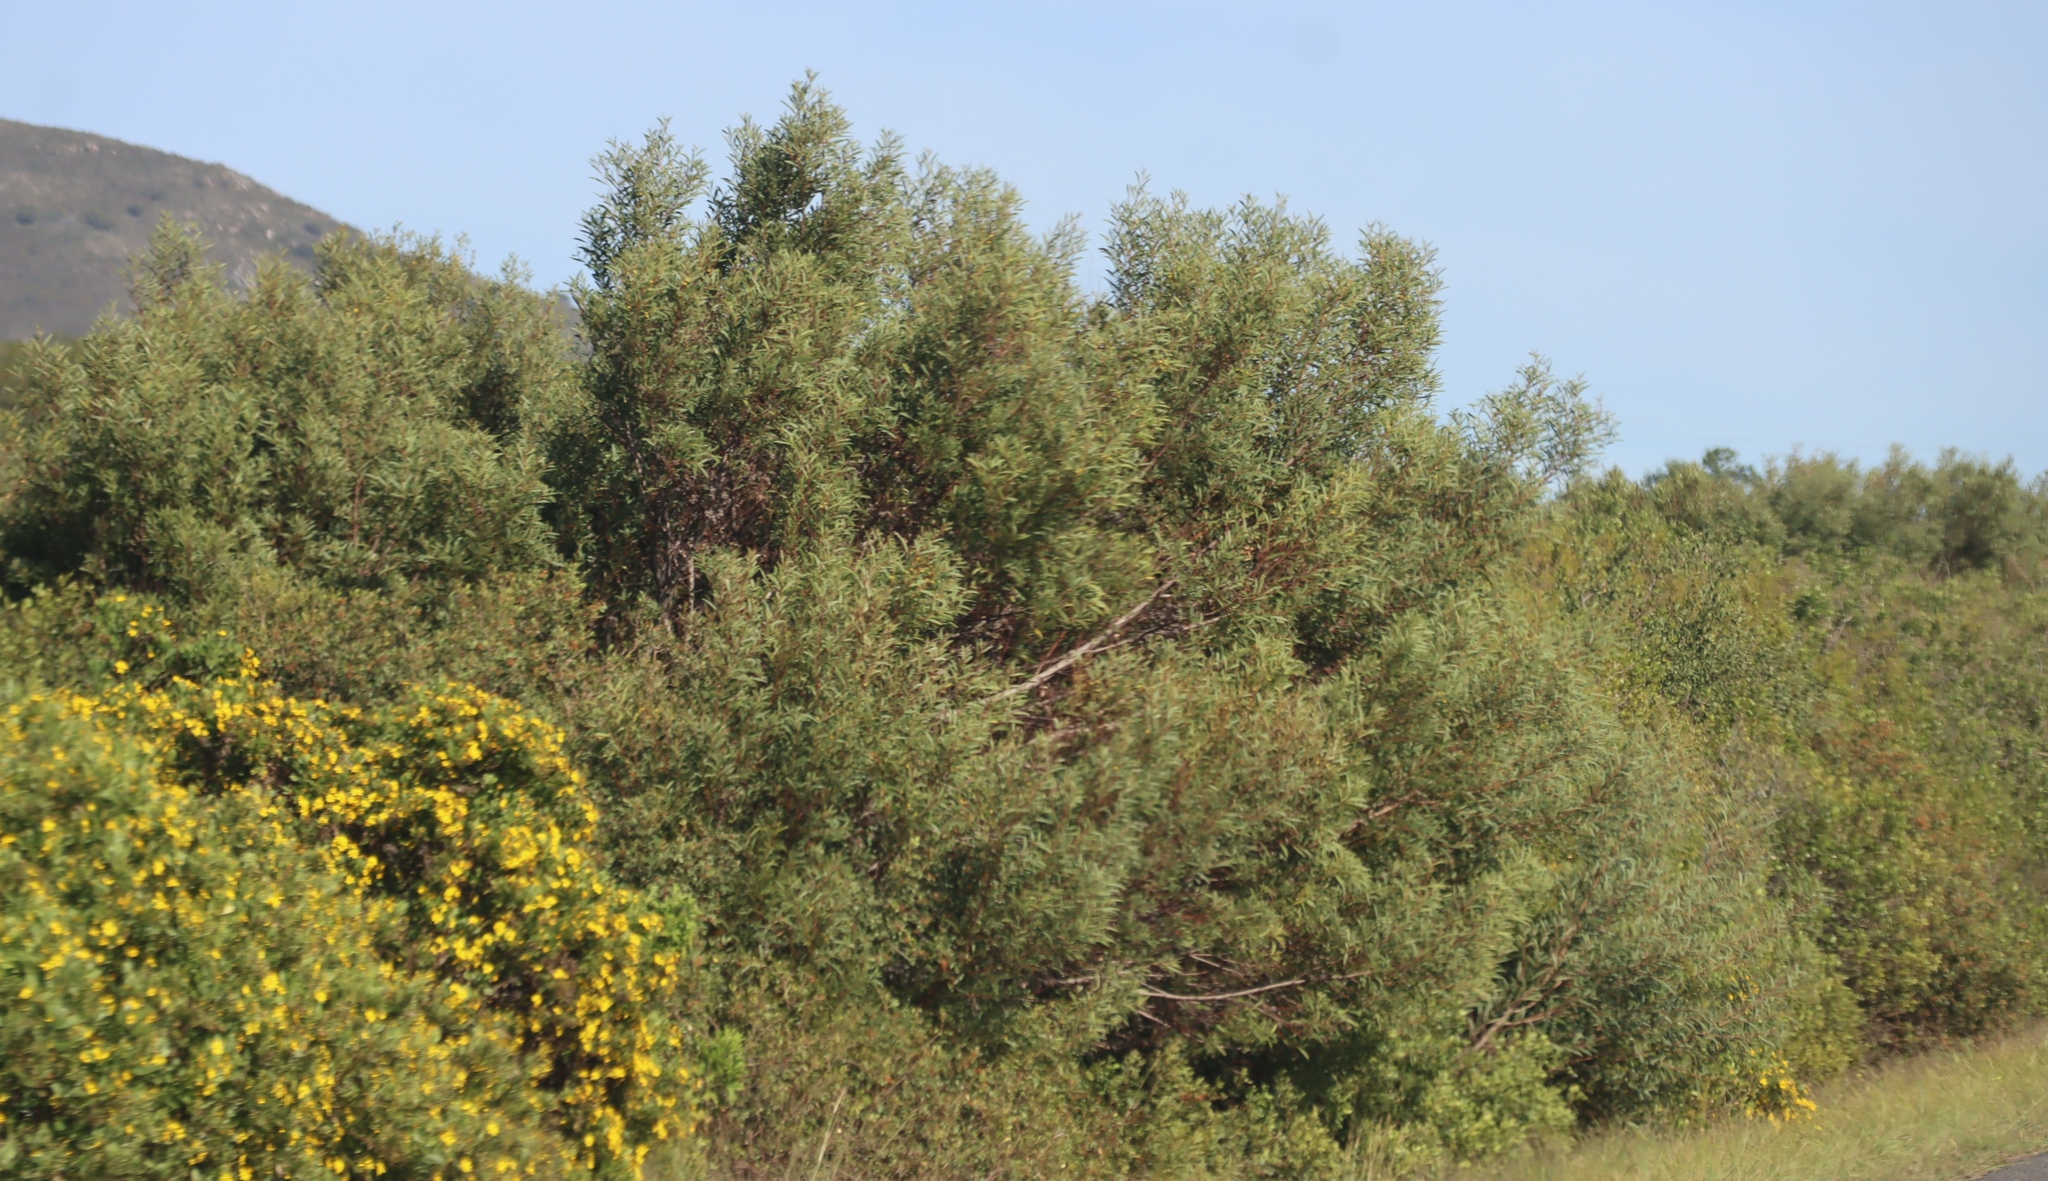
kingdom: Plantae
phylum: Tracheophyta
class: Magnoliopsida
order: Fabales
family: Fabaceae
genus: Acacia
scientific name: Acacia cyclops
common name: Coastal wattle
